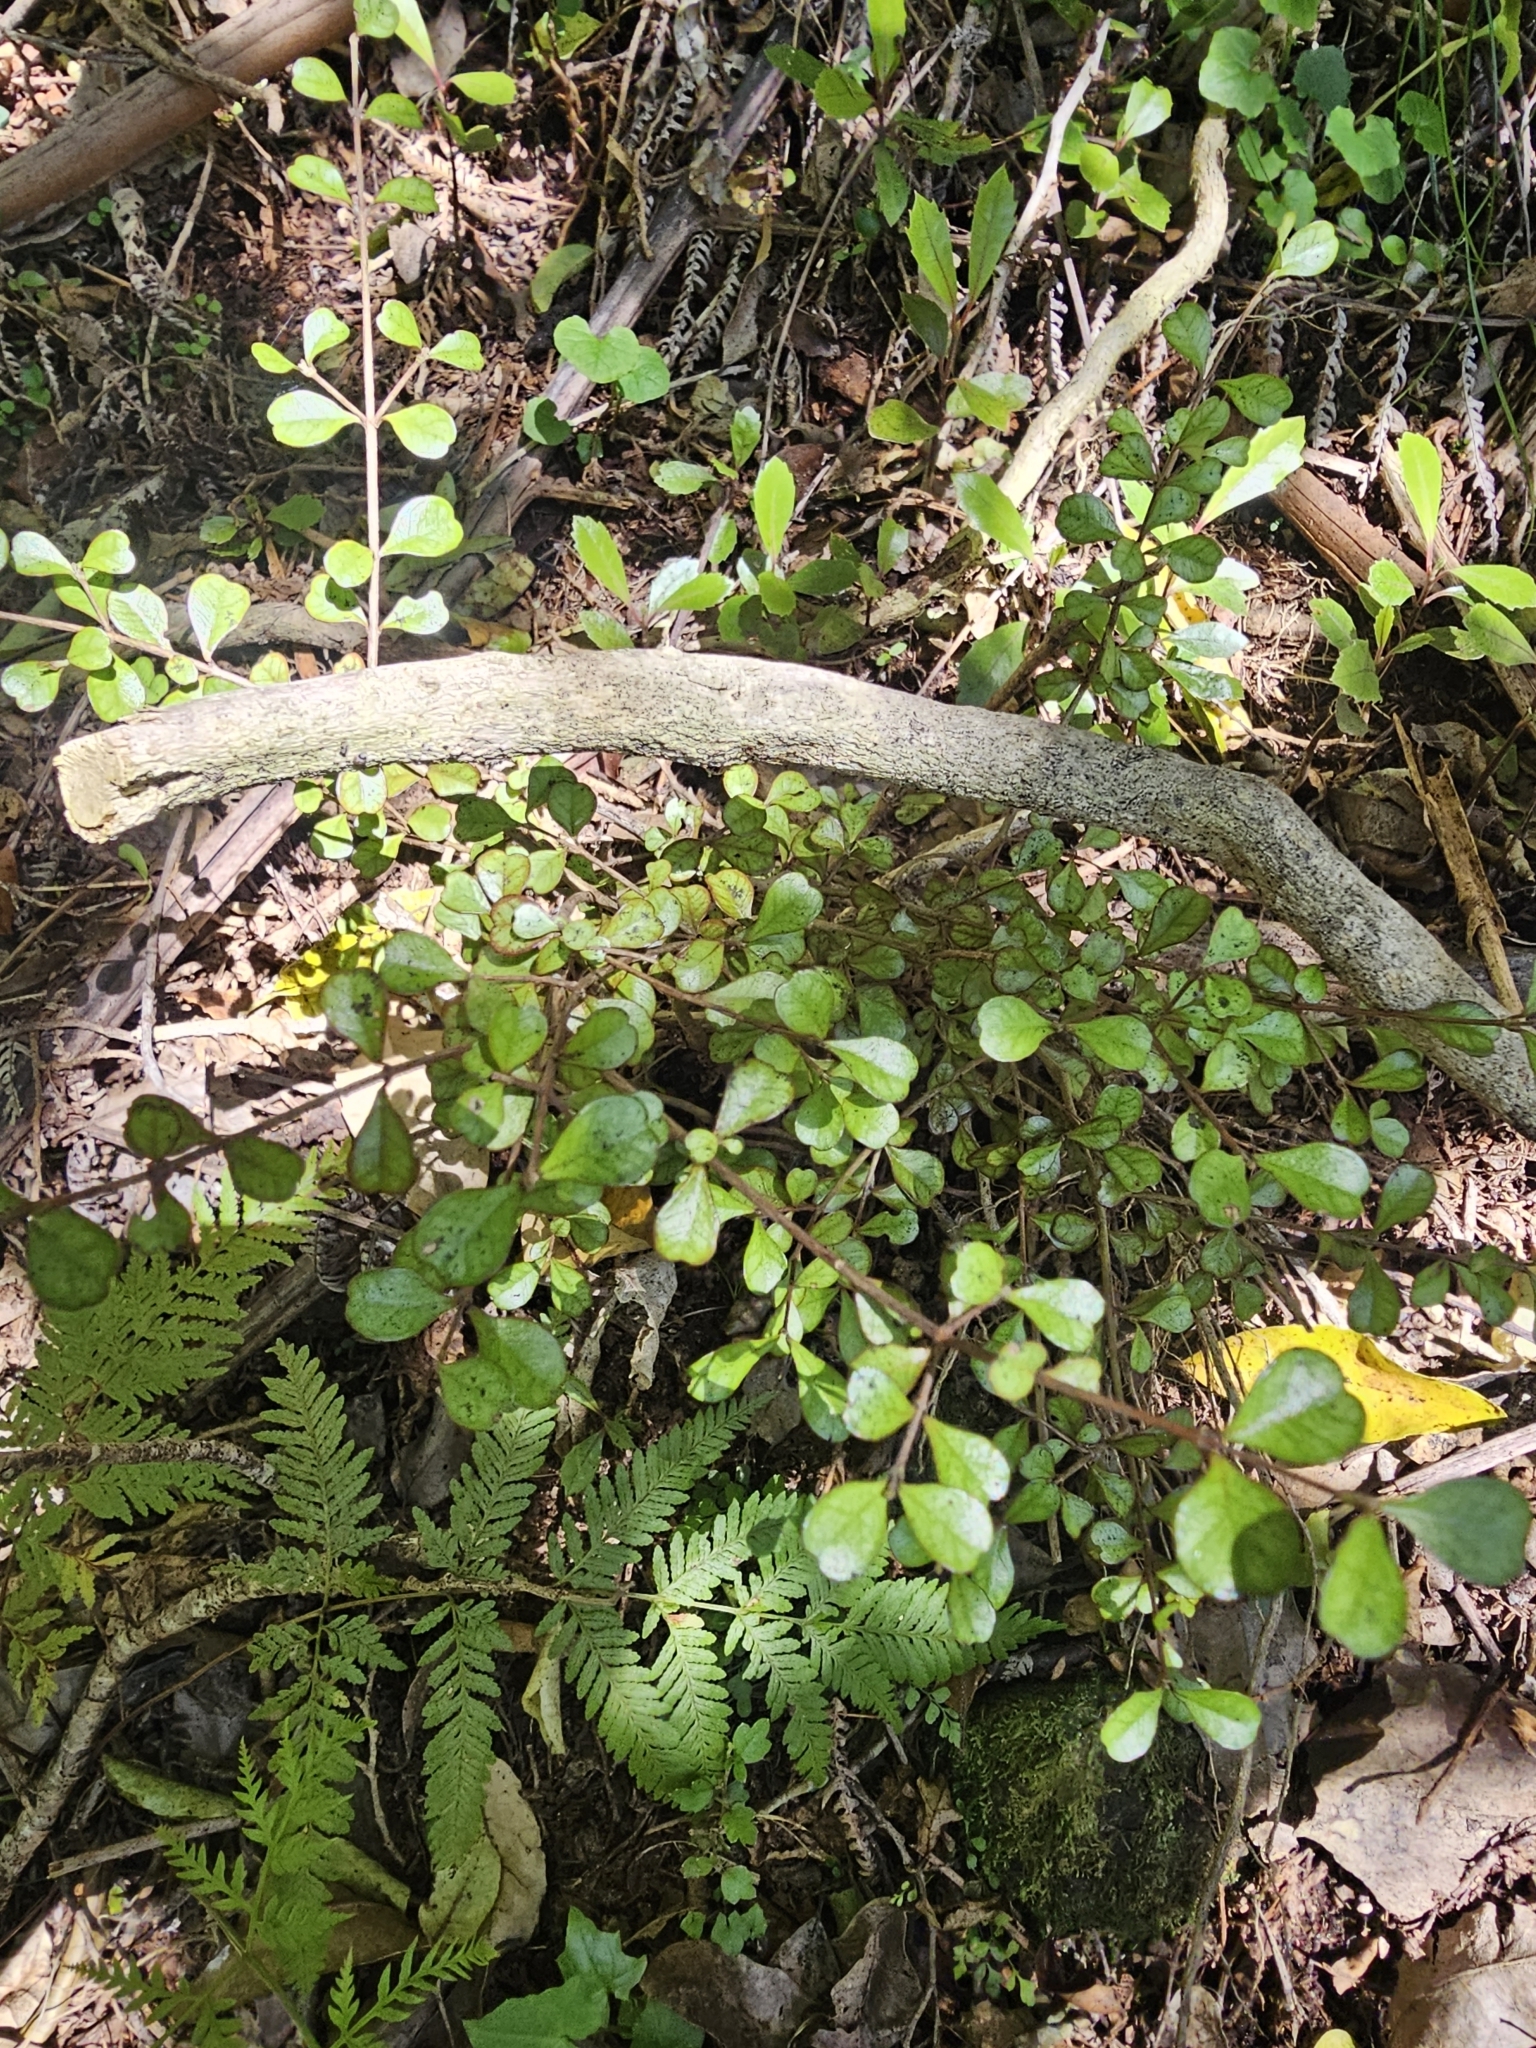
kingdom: Plantae
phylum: Tracheophyta
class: Magnoliopsida
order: Myrtales
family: Myrtaceae
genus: Lophomyrtus
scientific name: Lophomyrtus obcordata
